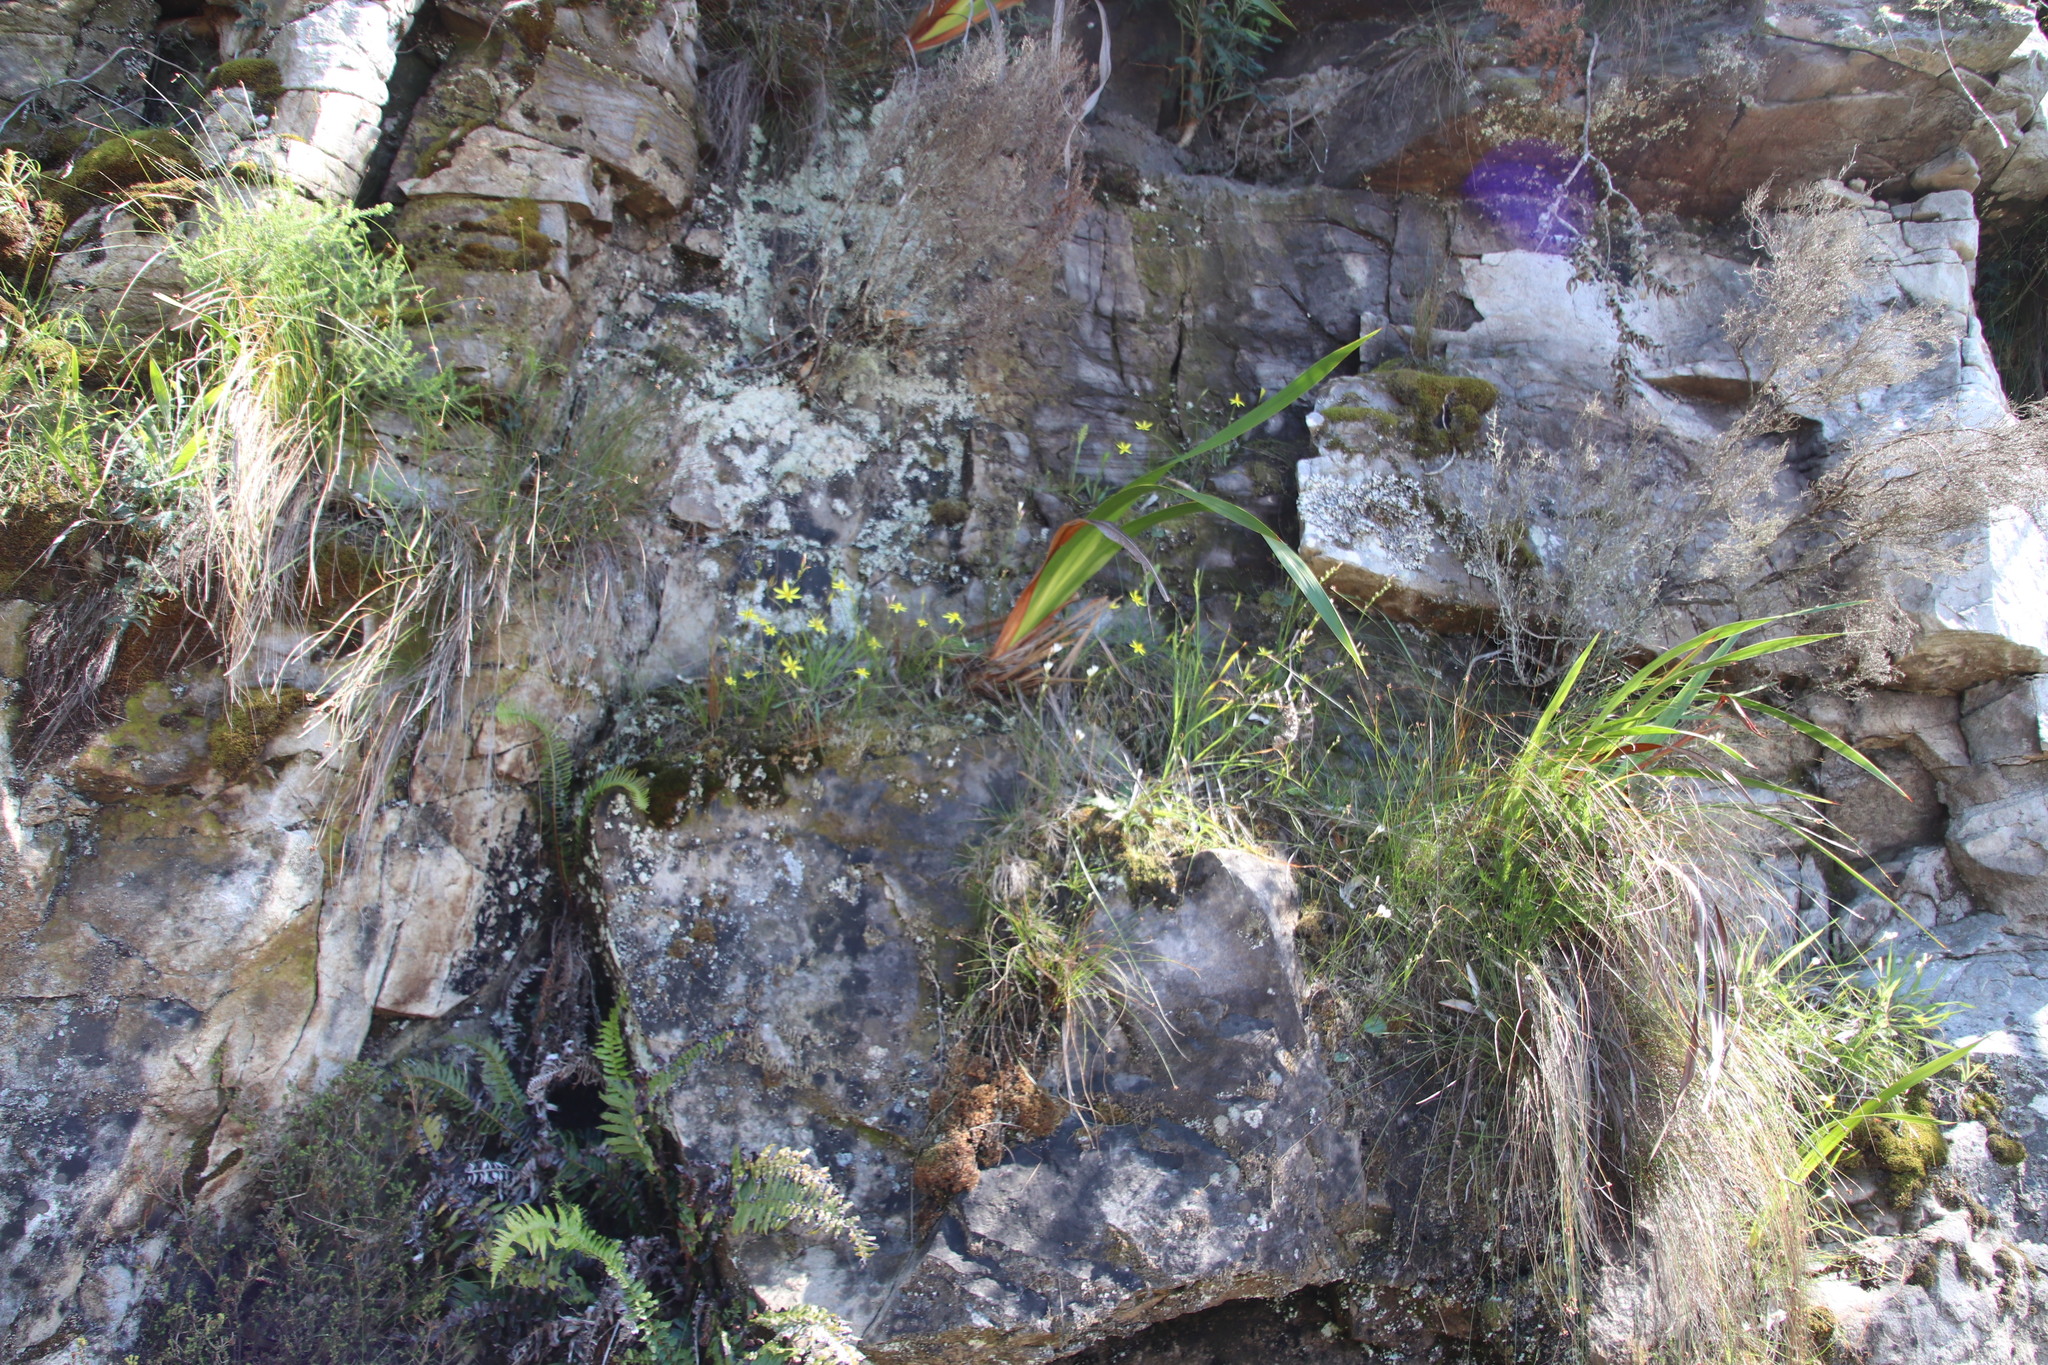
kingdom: Plantae
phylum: Tracheophyta
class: Liliopsida
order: Asparagales
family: Hypoxidaceae
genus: Pauridia
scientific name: Pauridia capensis
